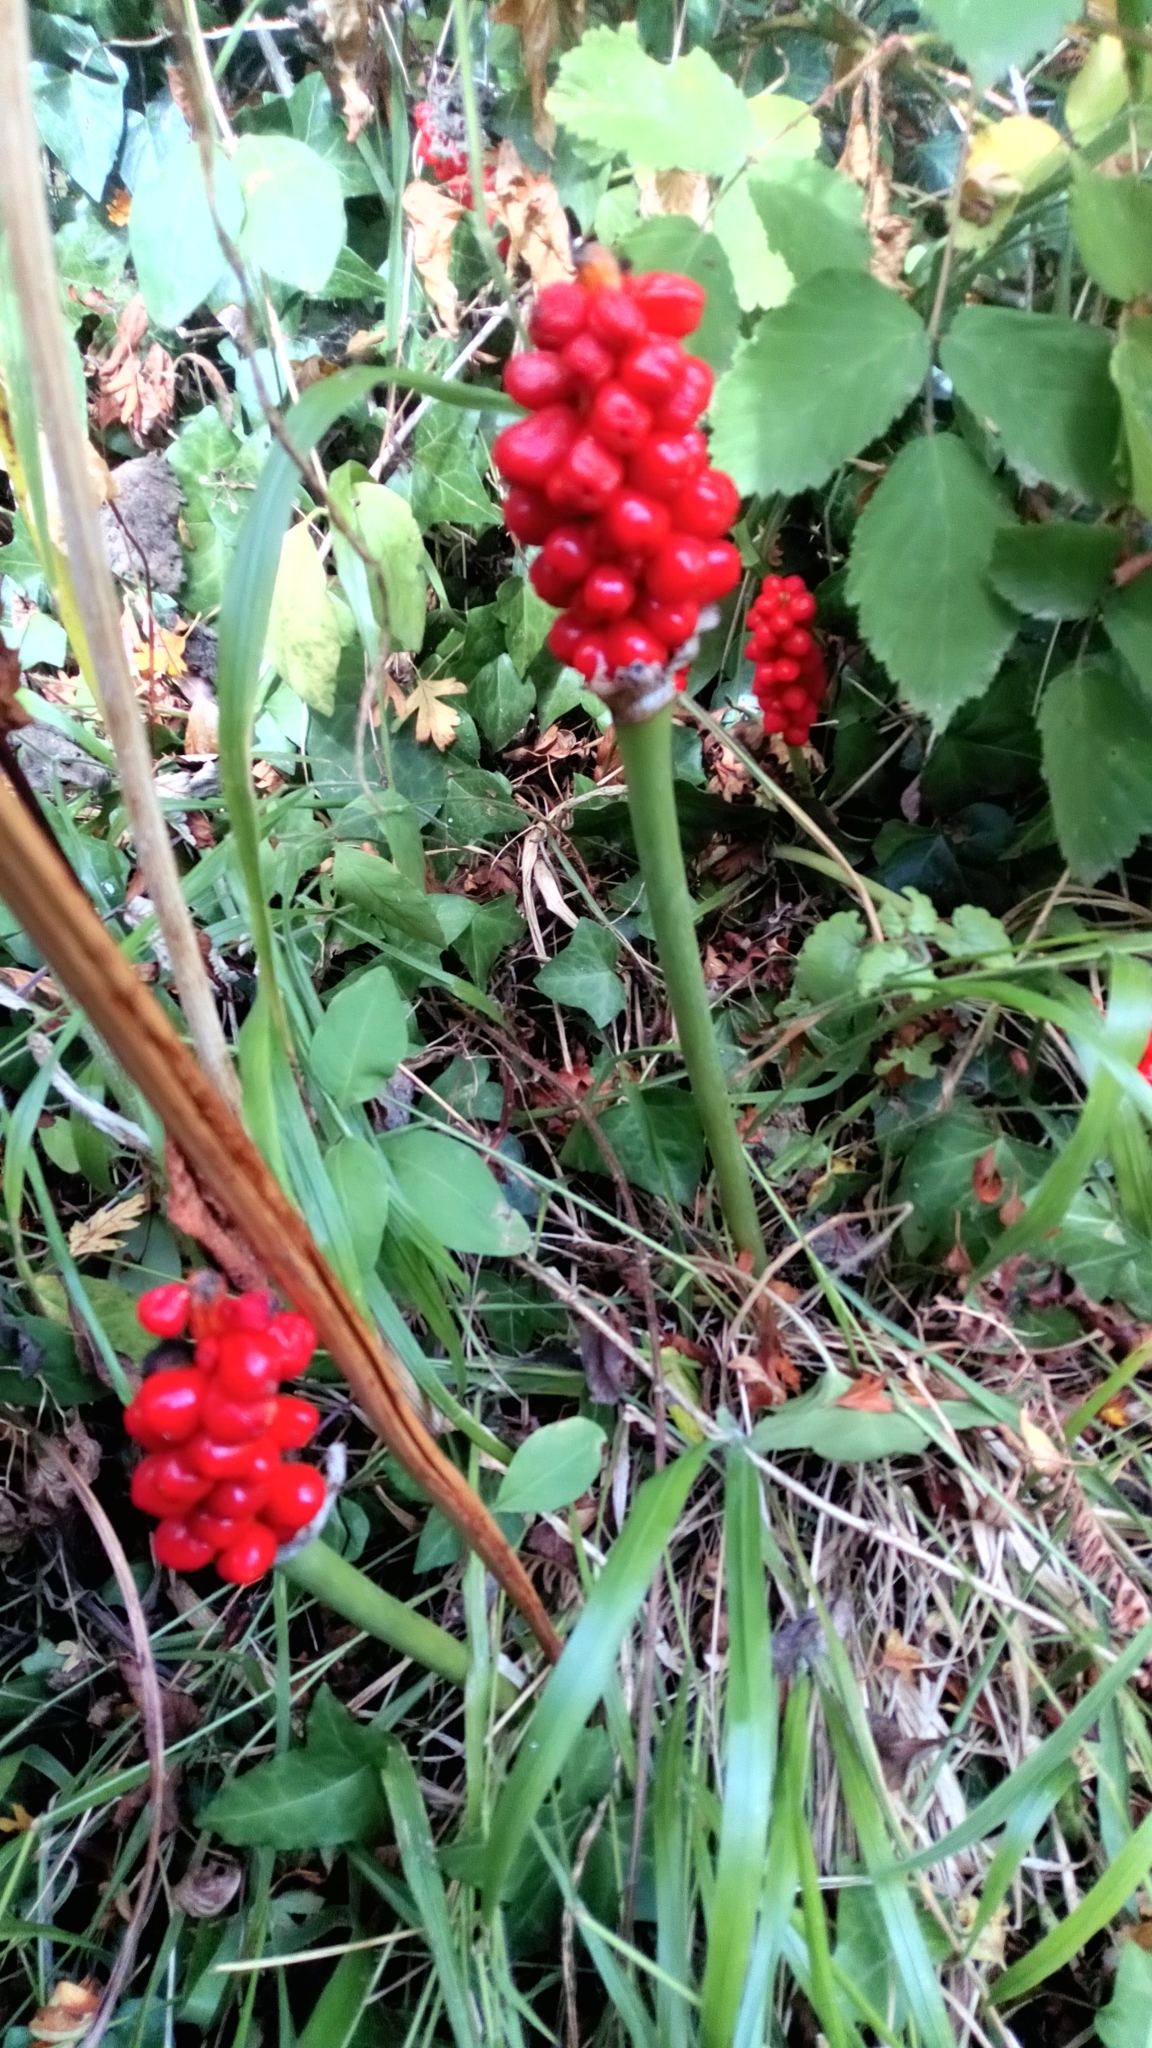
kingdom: Plantae
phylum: Tracheophyta
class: Liliopsida
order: Alismatales
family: Araceae
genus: Arum
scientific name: Arum maculatum
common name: Lords-and-ladies
